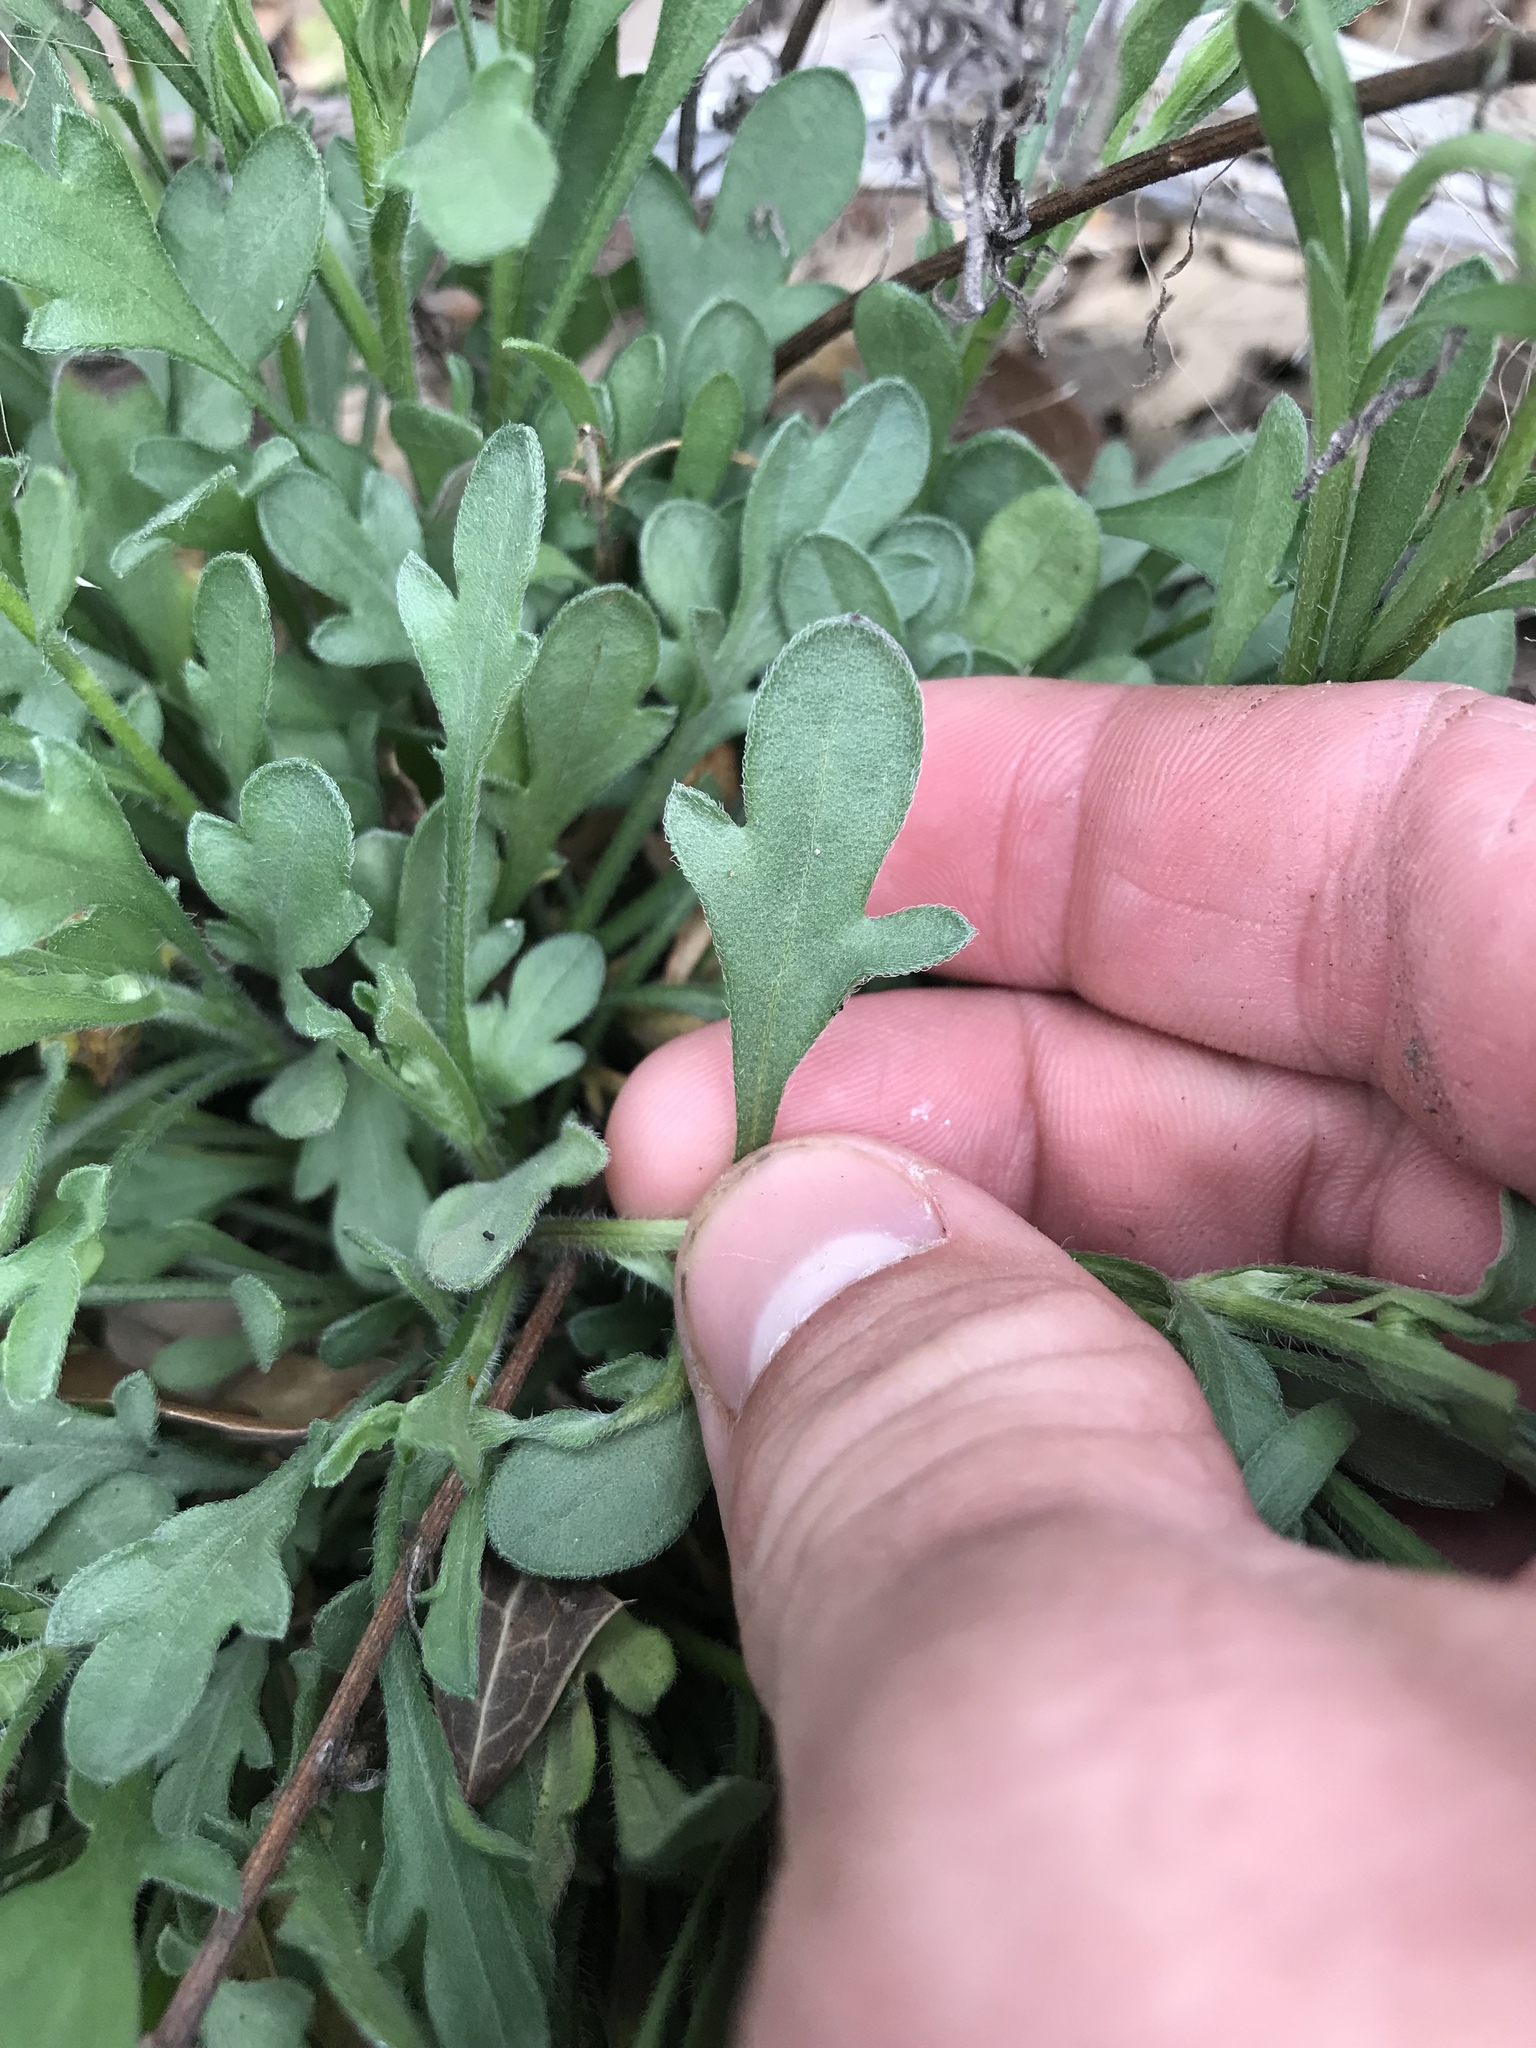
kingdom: Plantae
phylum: Tracheophyta
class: Magnoliopsida
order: Asterales
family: Asteraceae
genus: Erigeron
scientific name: Erigeron modestus
